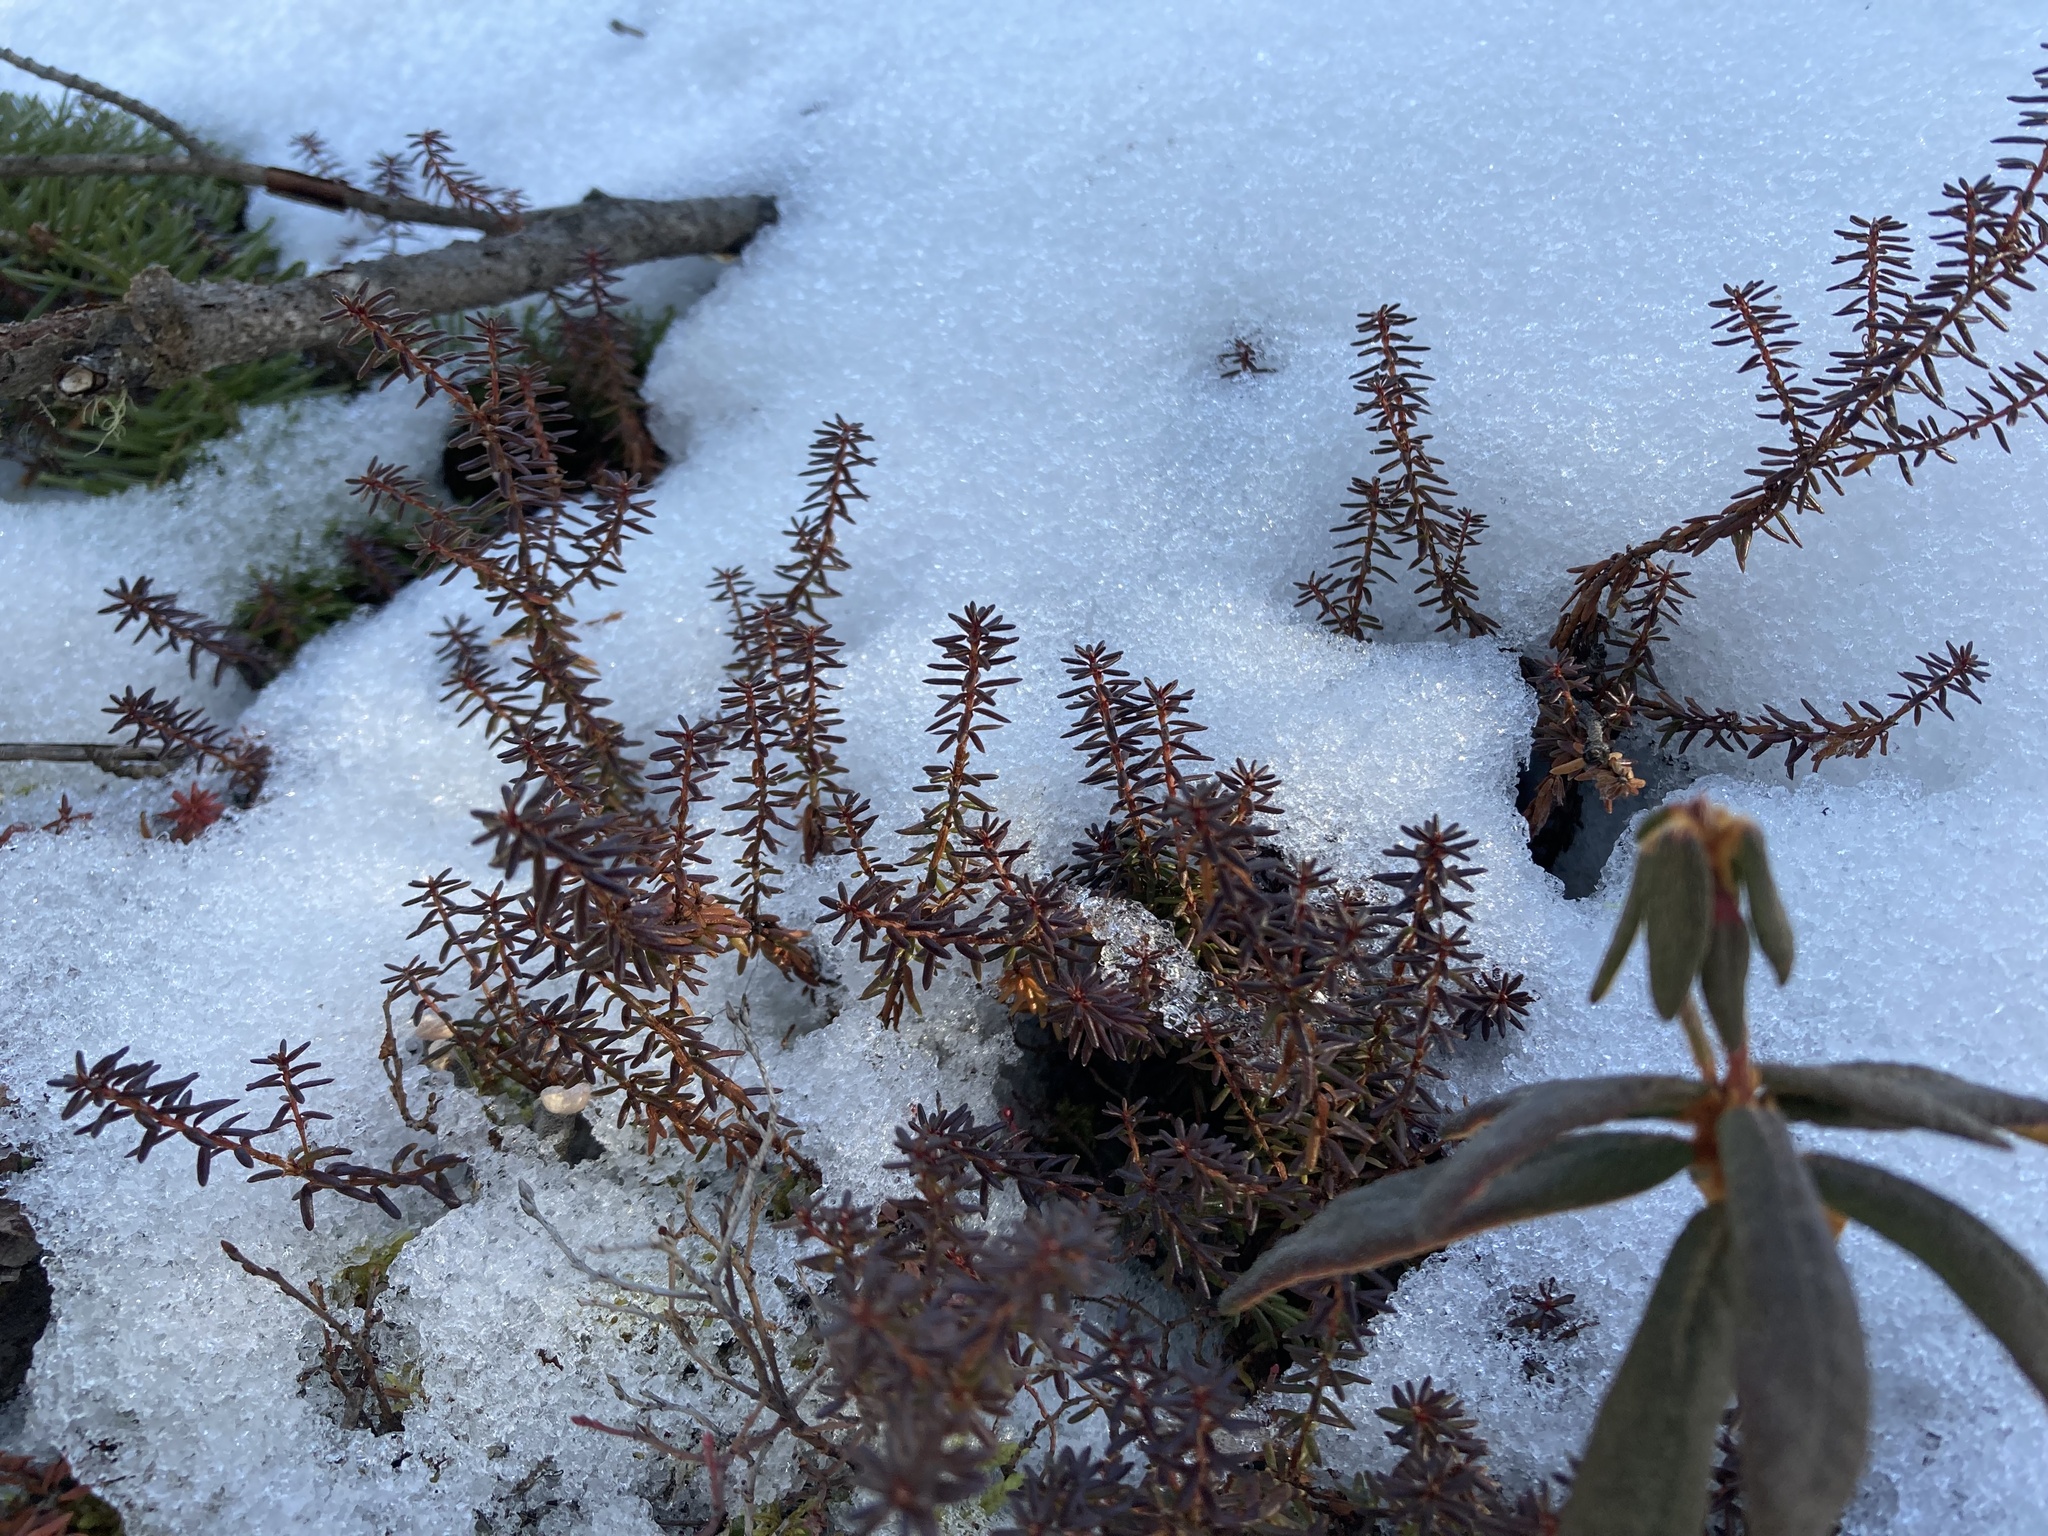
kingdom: Plantae
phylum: Tracheophyta
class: Magnoliopsida
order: Ericales
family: Ericaceae
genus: Empetrum
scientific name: Empetrum nigrum
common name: Black crowberry
